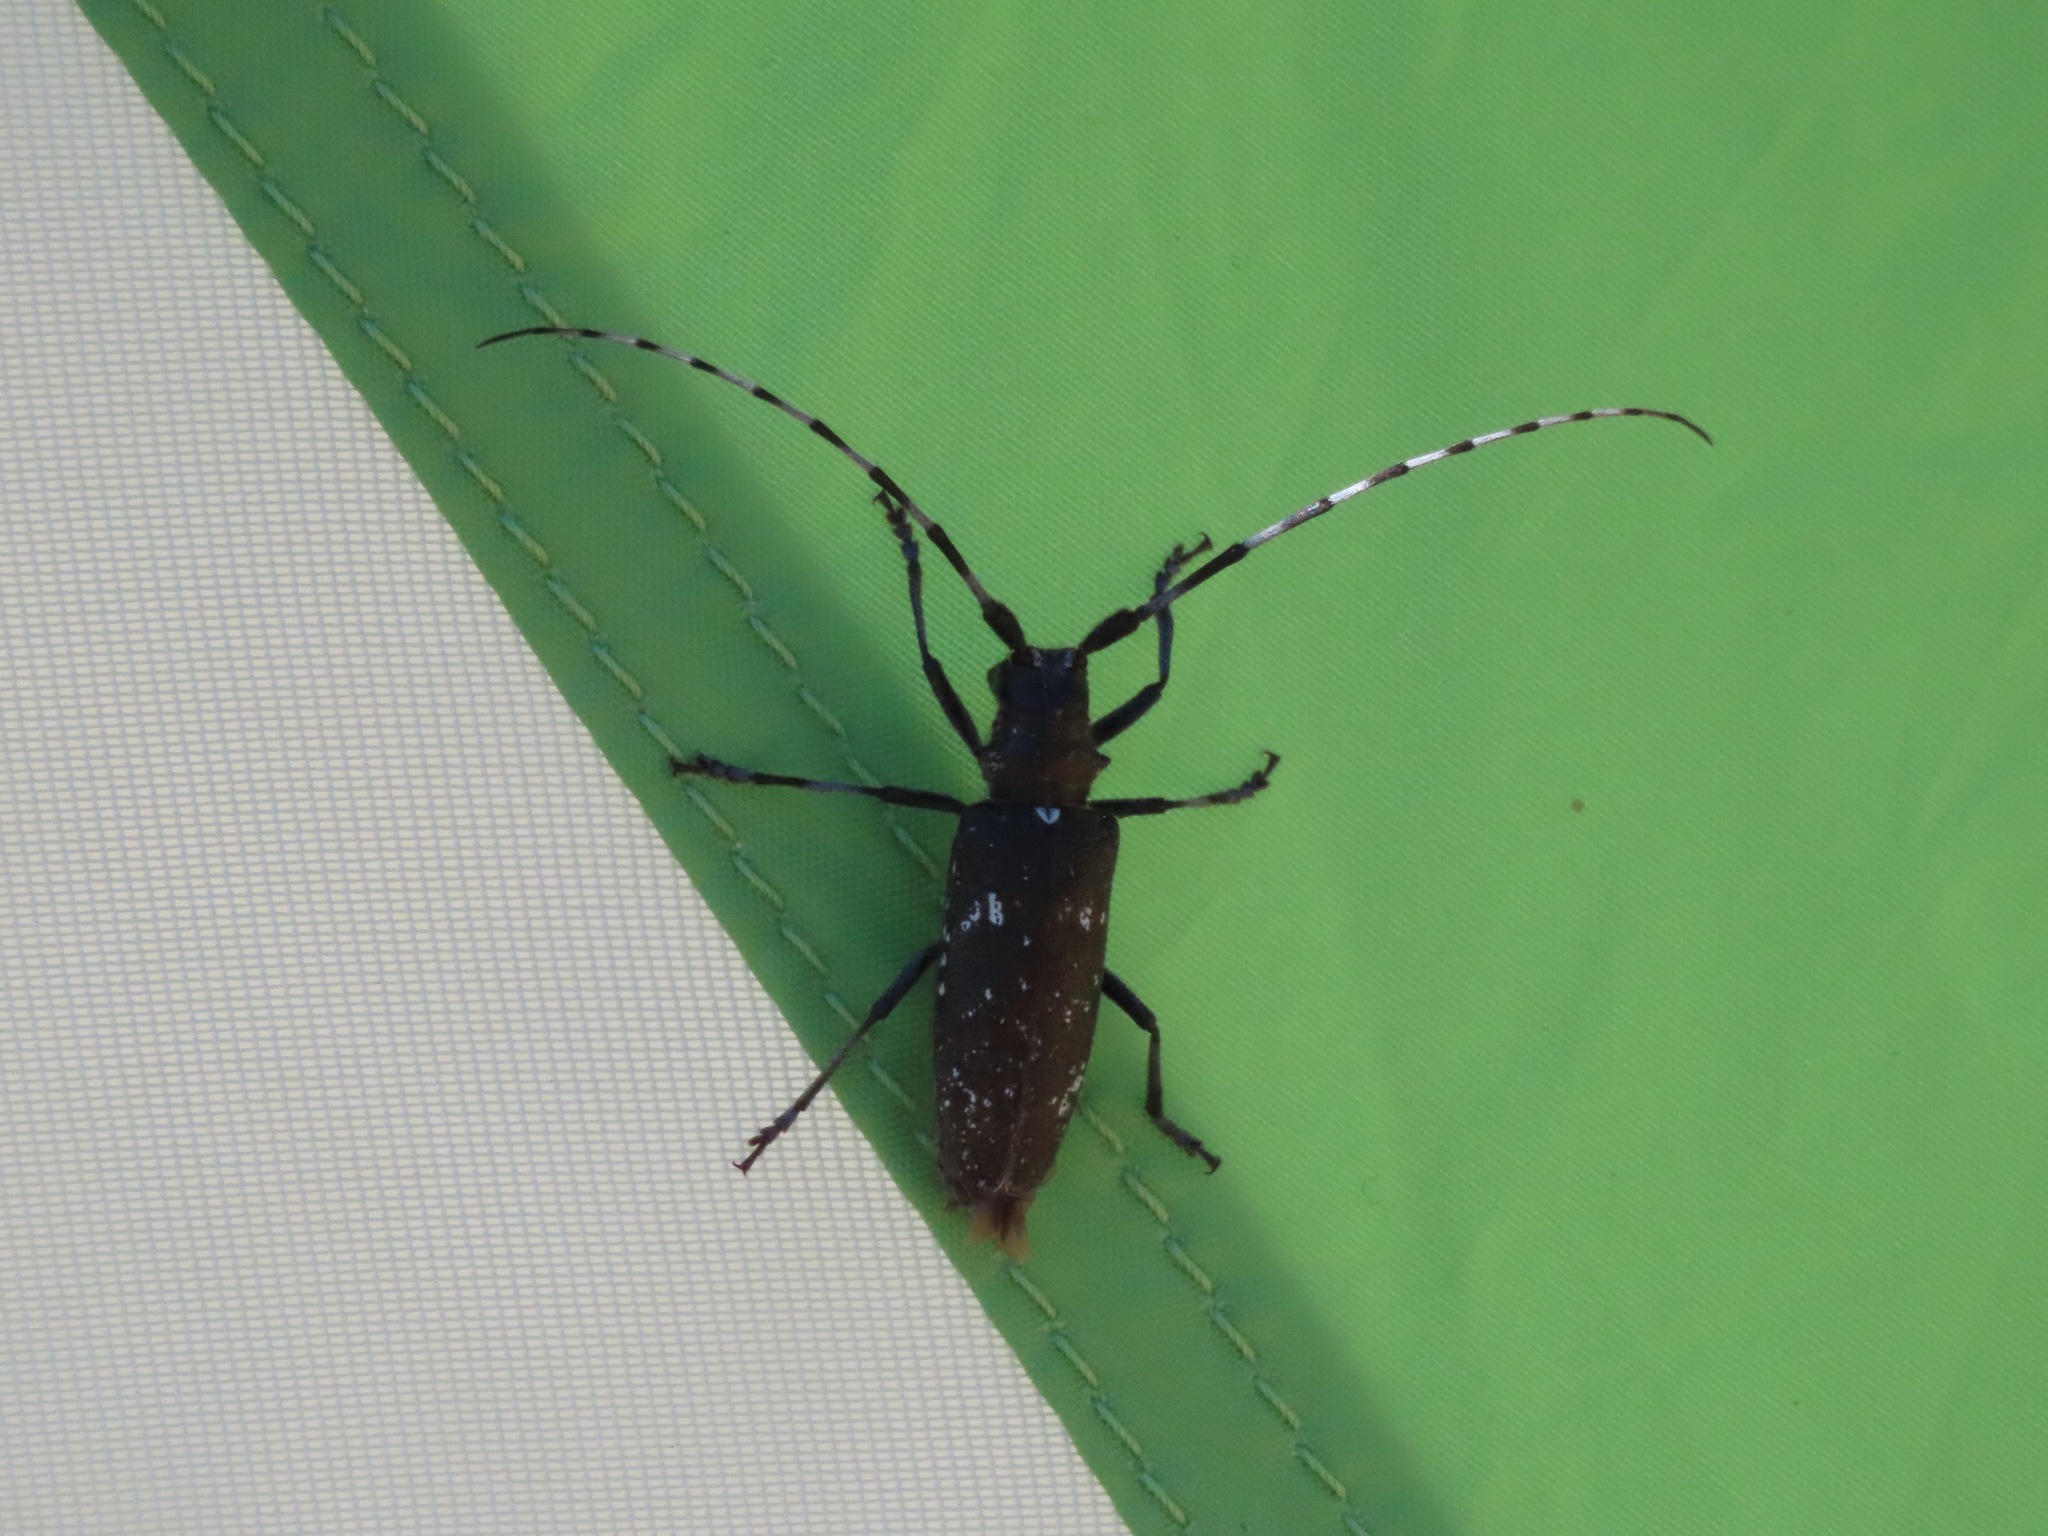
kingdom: Animalia
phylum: Arthropoda
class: Insecta
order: Coleoptera
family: Cerambycidae
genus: Monochamus
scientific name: Monochamus scutellatus
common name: White-spotted sawyer beetle
